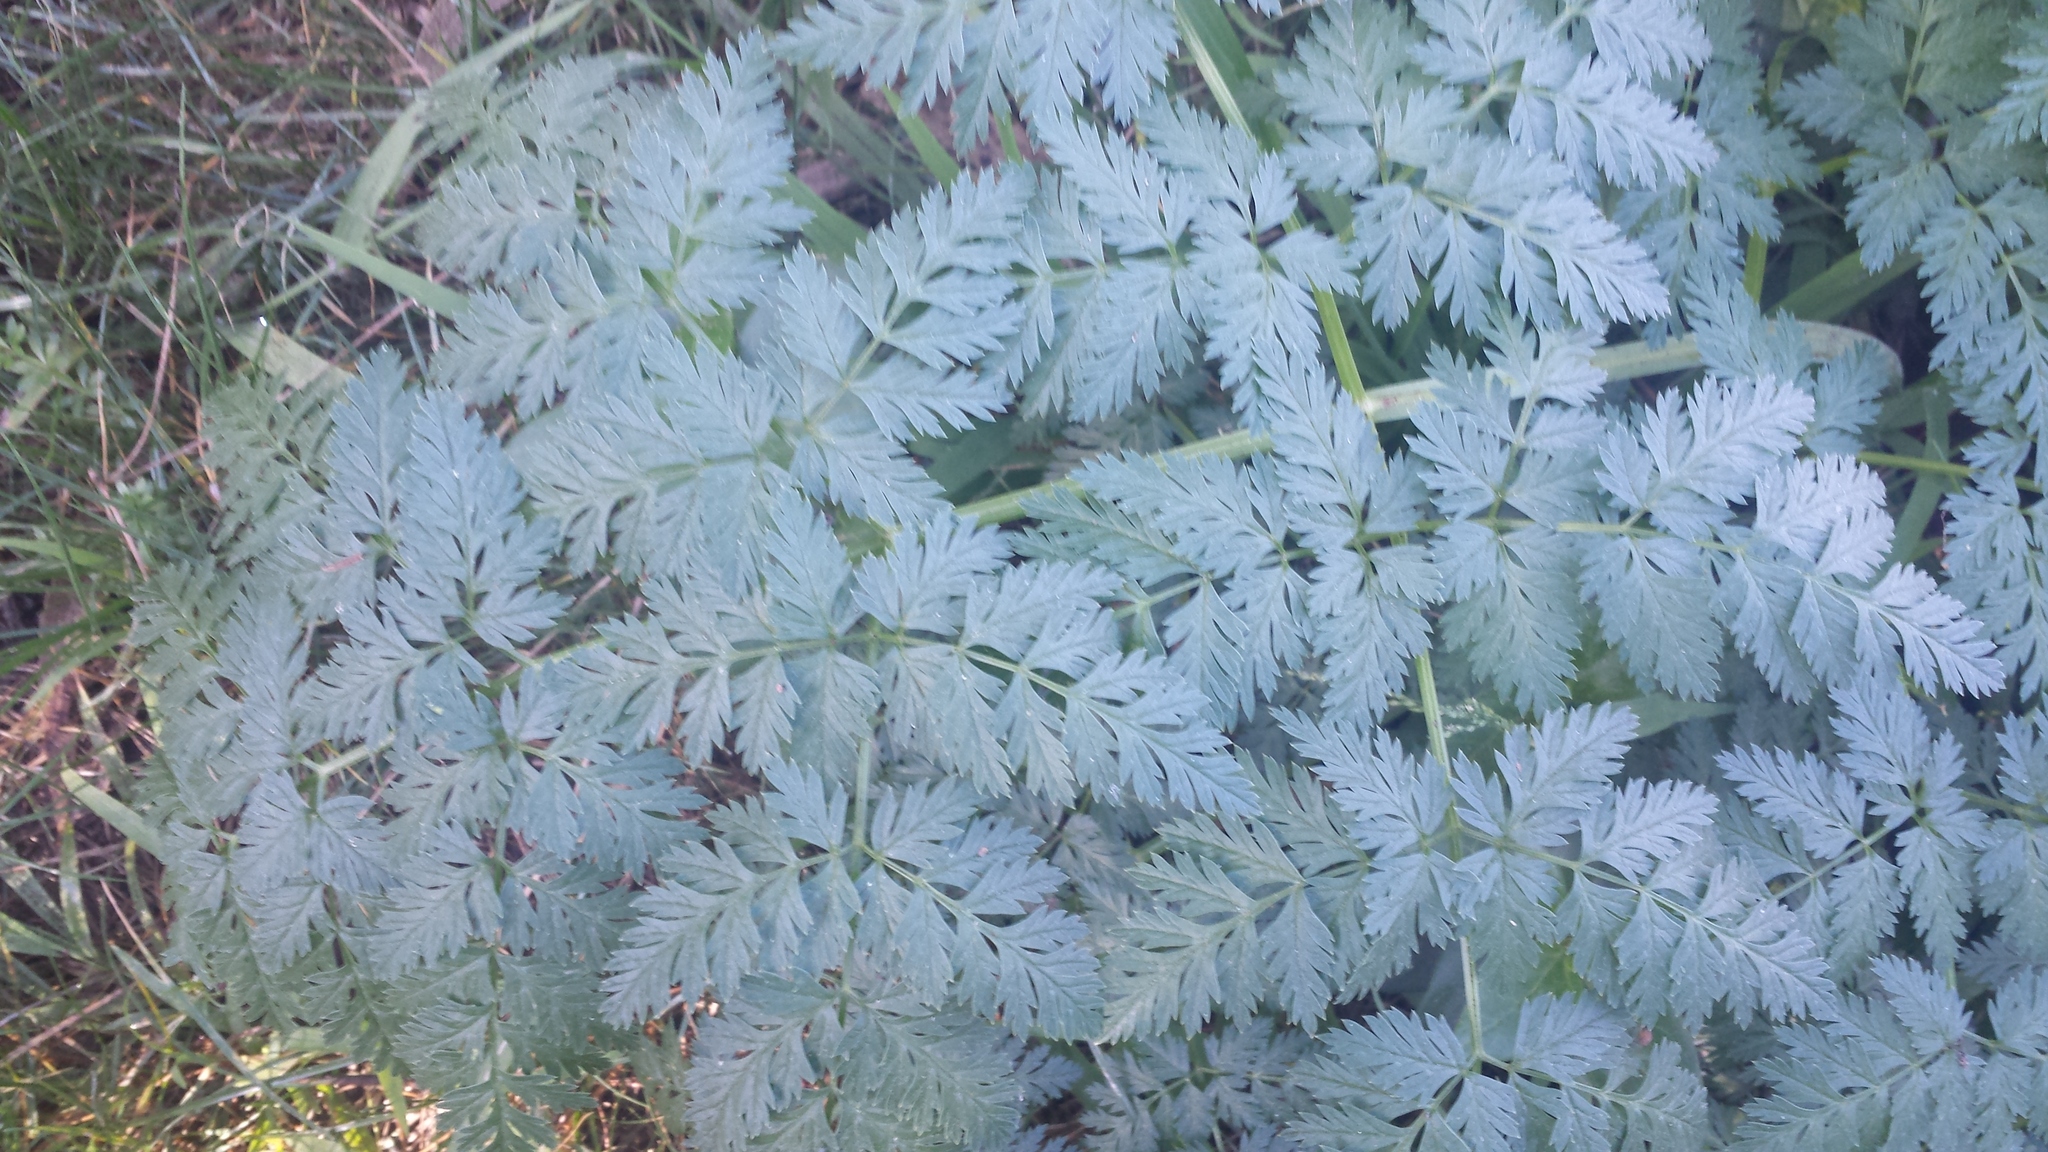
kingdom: Plantae
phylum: Tracheophyta
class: Magnoliopsida
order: Apiales
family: Apiaceae
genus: Conium
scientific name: Conium maculatum
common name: Hemlock
